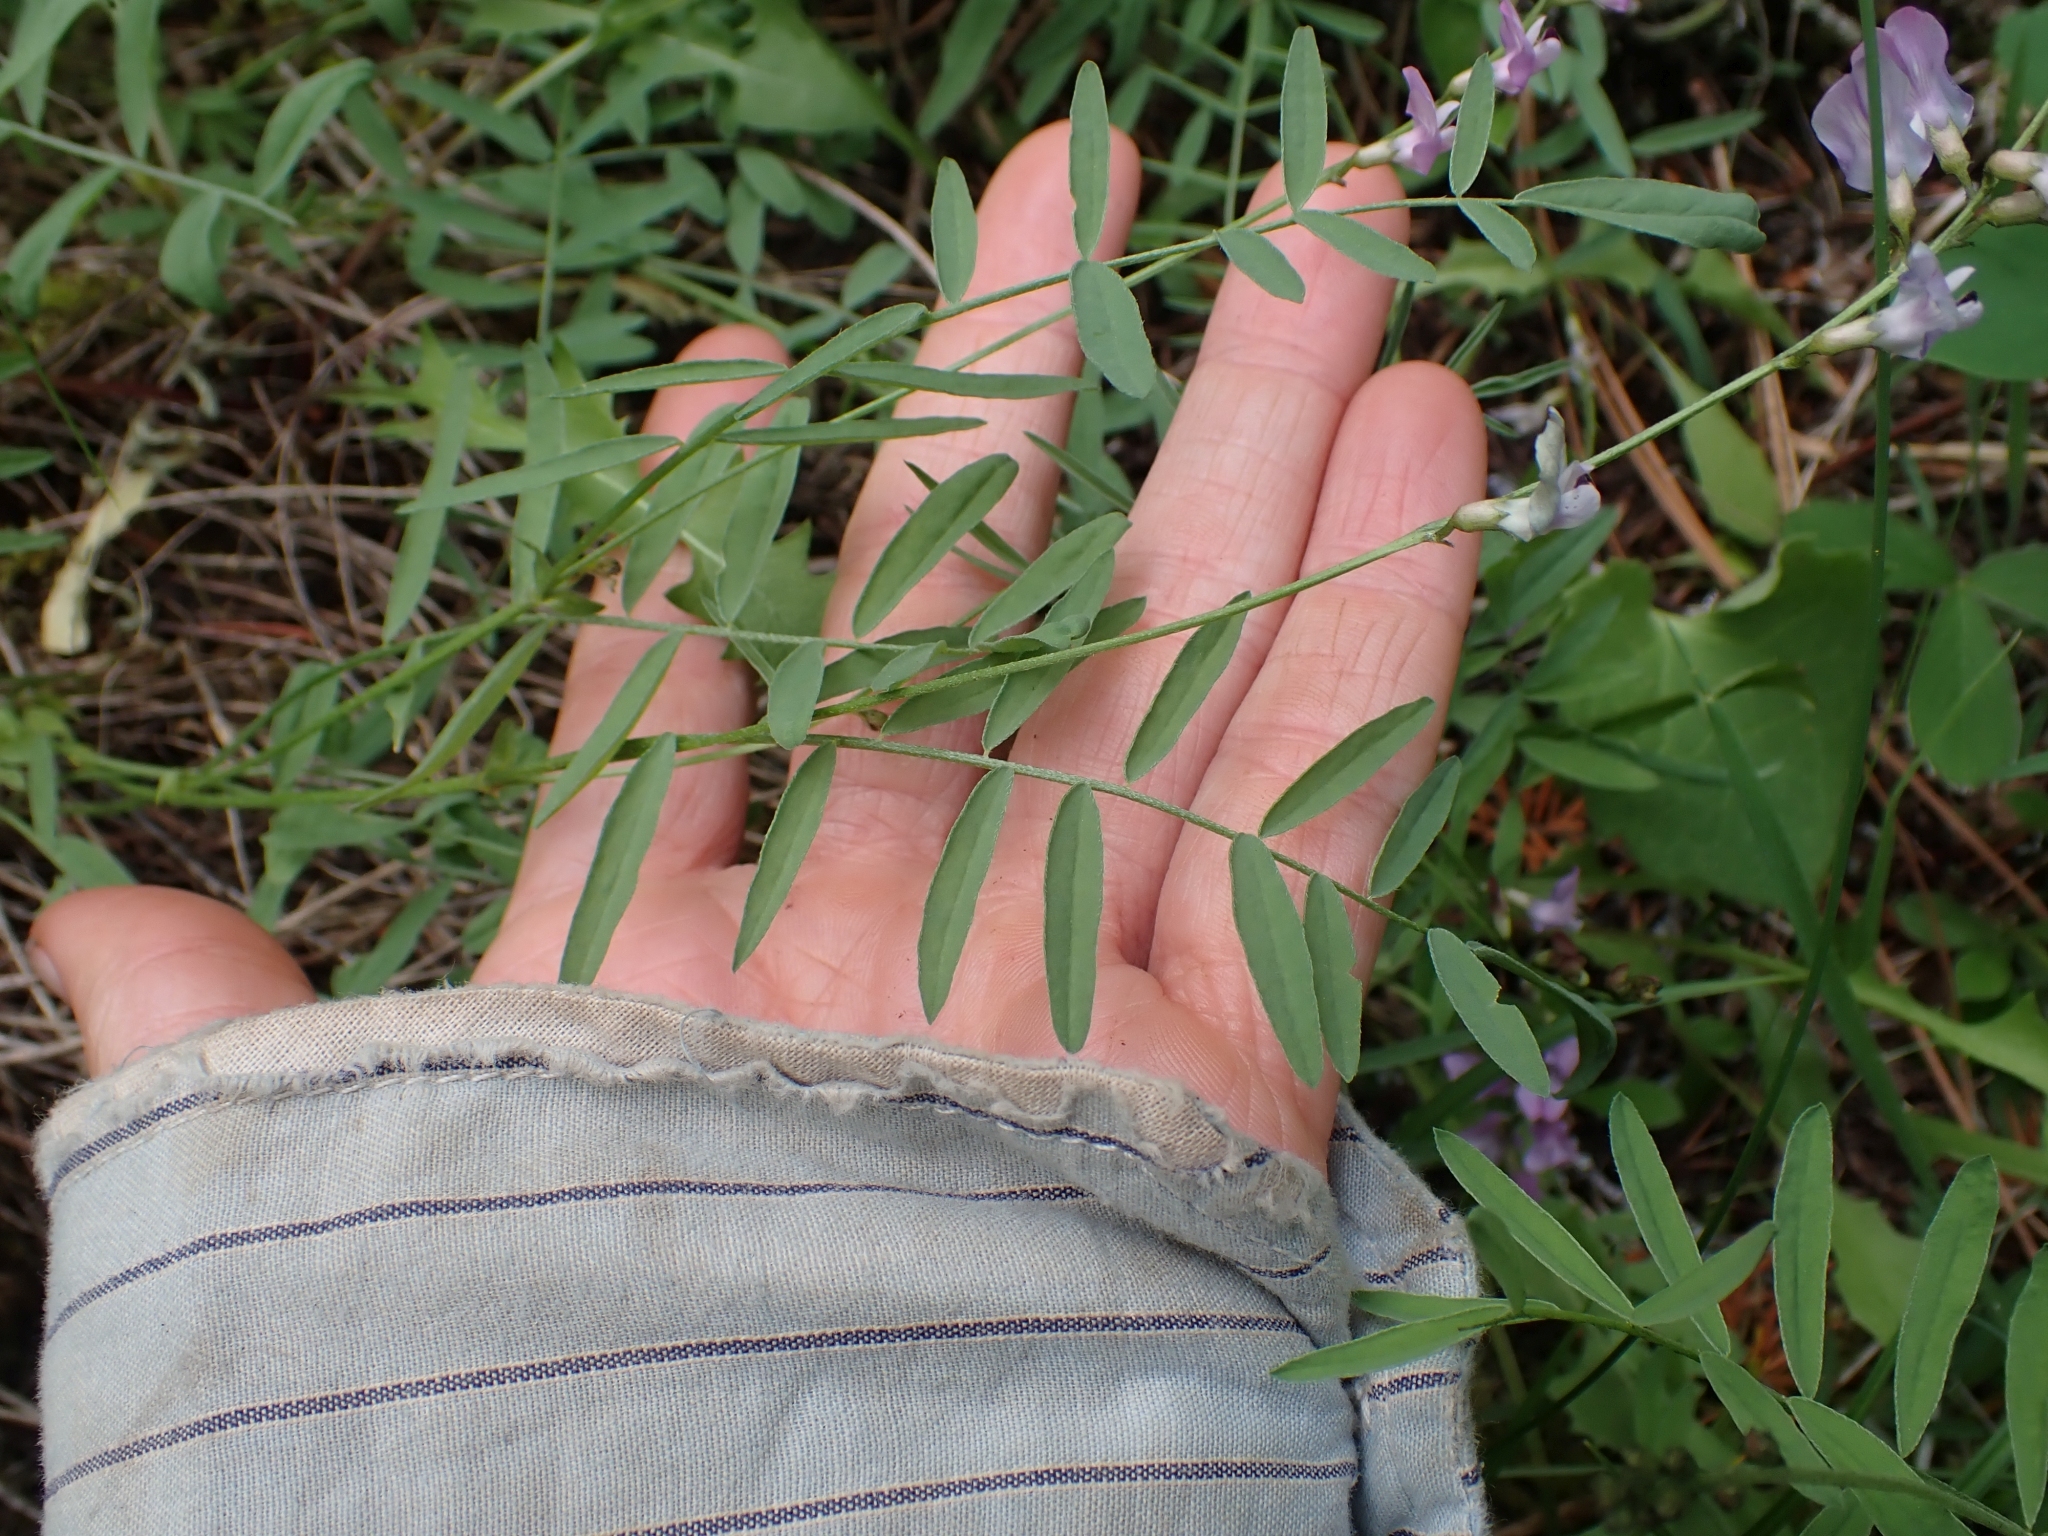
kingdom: Plantae
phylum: Tracheophyta
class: Magnoliopsida
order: Fabales
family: Fabaceae
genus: Astragalus
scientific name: Astragalus miser
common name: Timber milkvetch
